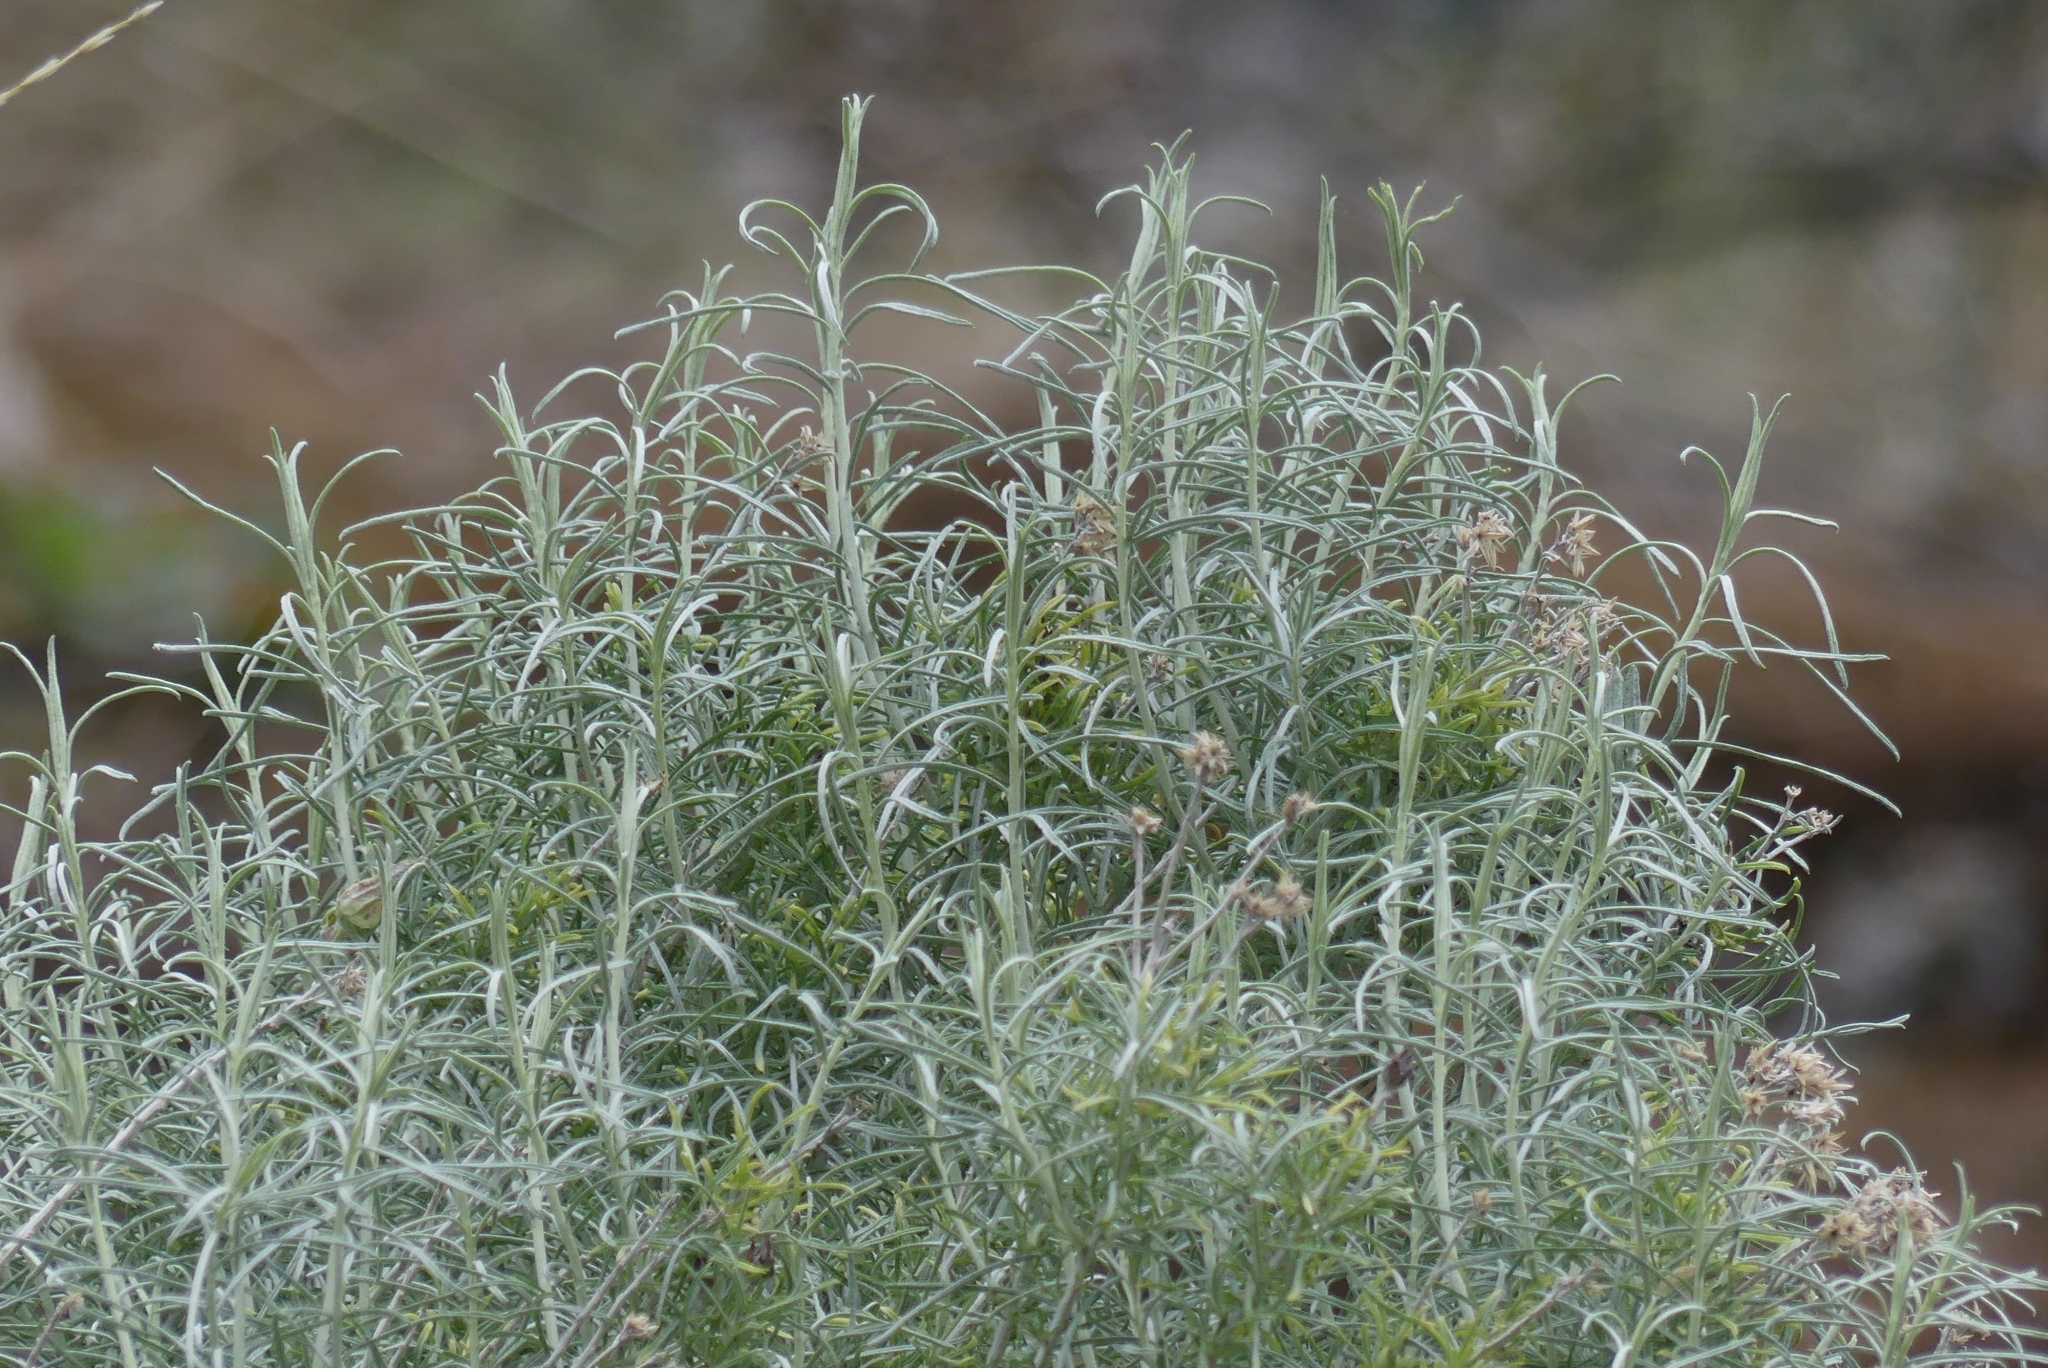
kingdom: Plantae
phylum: Tracheophyta
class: Magnoliopsida
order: Asterales
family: Asteraceae
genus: Ericameria
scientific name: Ericameria nauseosa
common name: Rubber rabbitbrush
